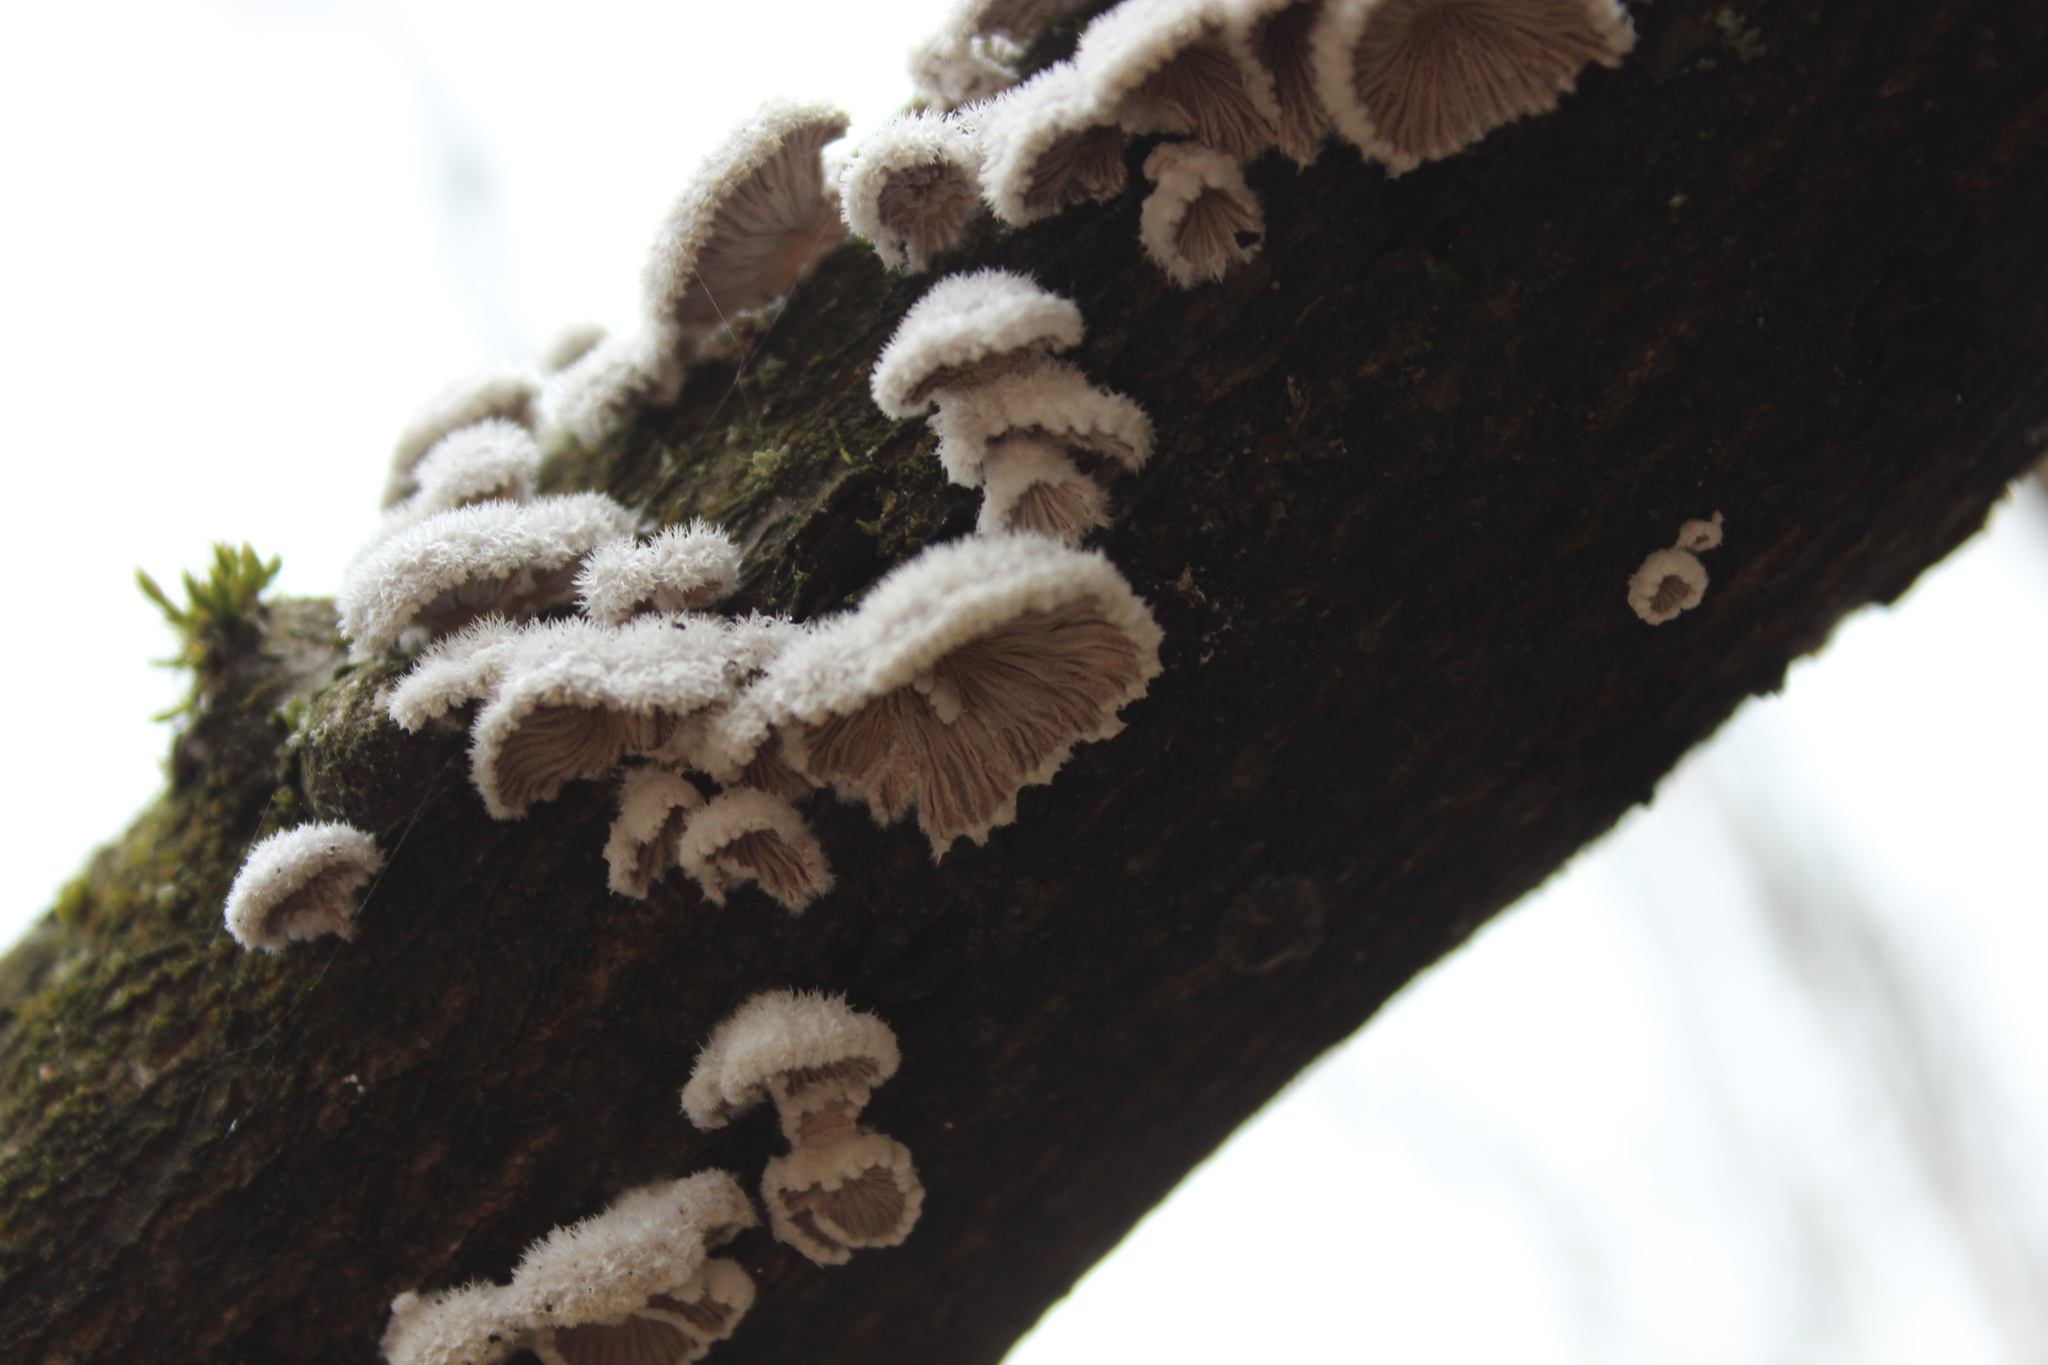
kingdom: Fungi
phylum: Basidiomycota
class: Agaricomycetes
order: Agaricales
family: Schizophyllaceae
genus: Schizophyllum
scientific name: Schizophyllum commune
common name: Common porecrust
